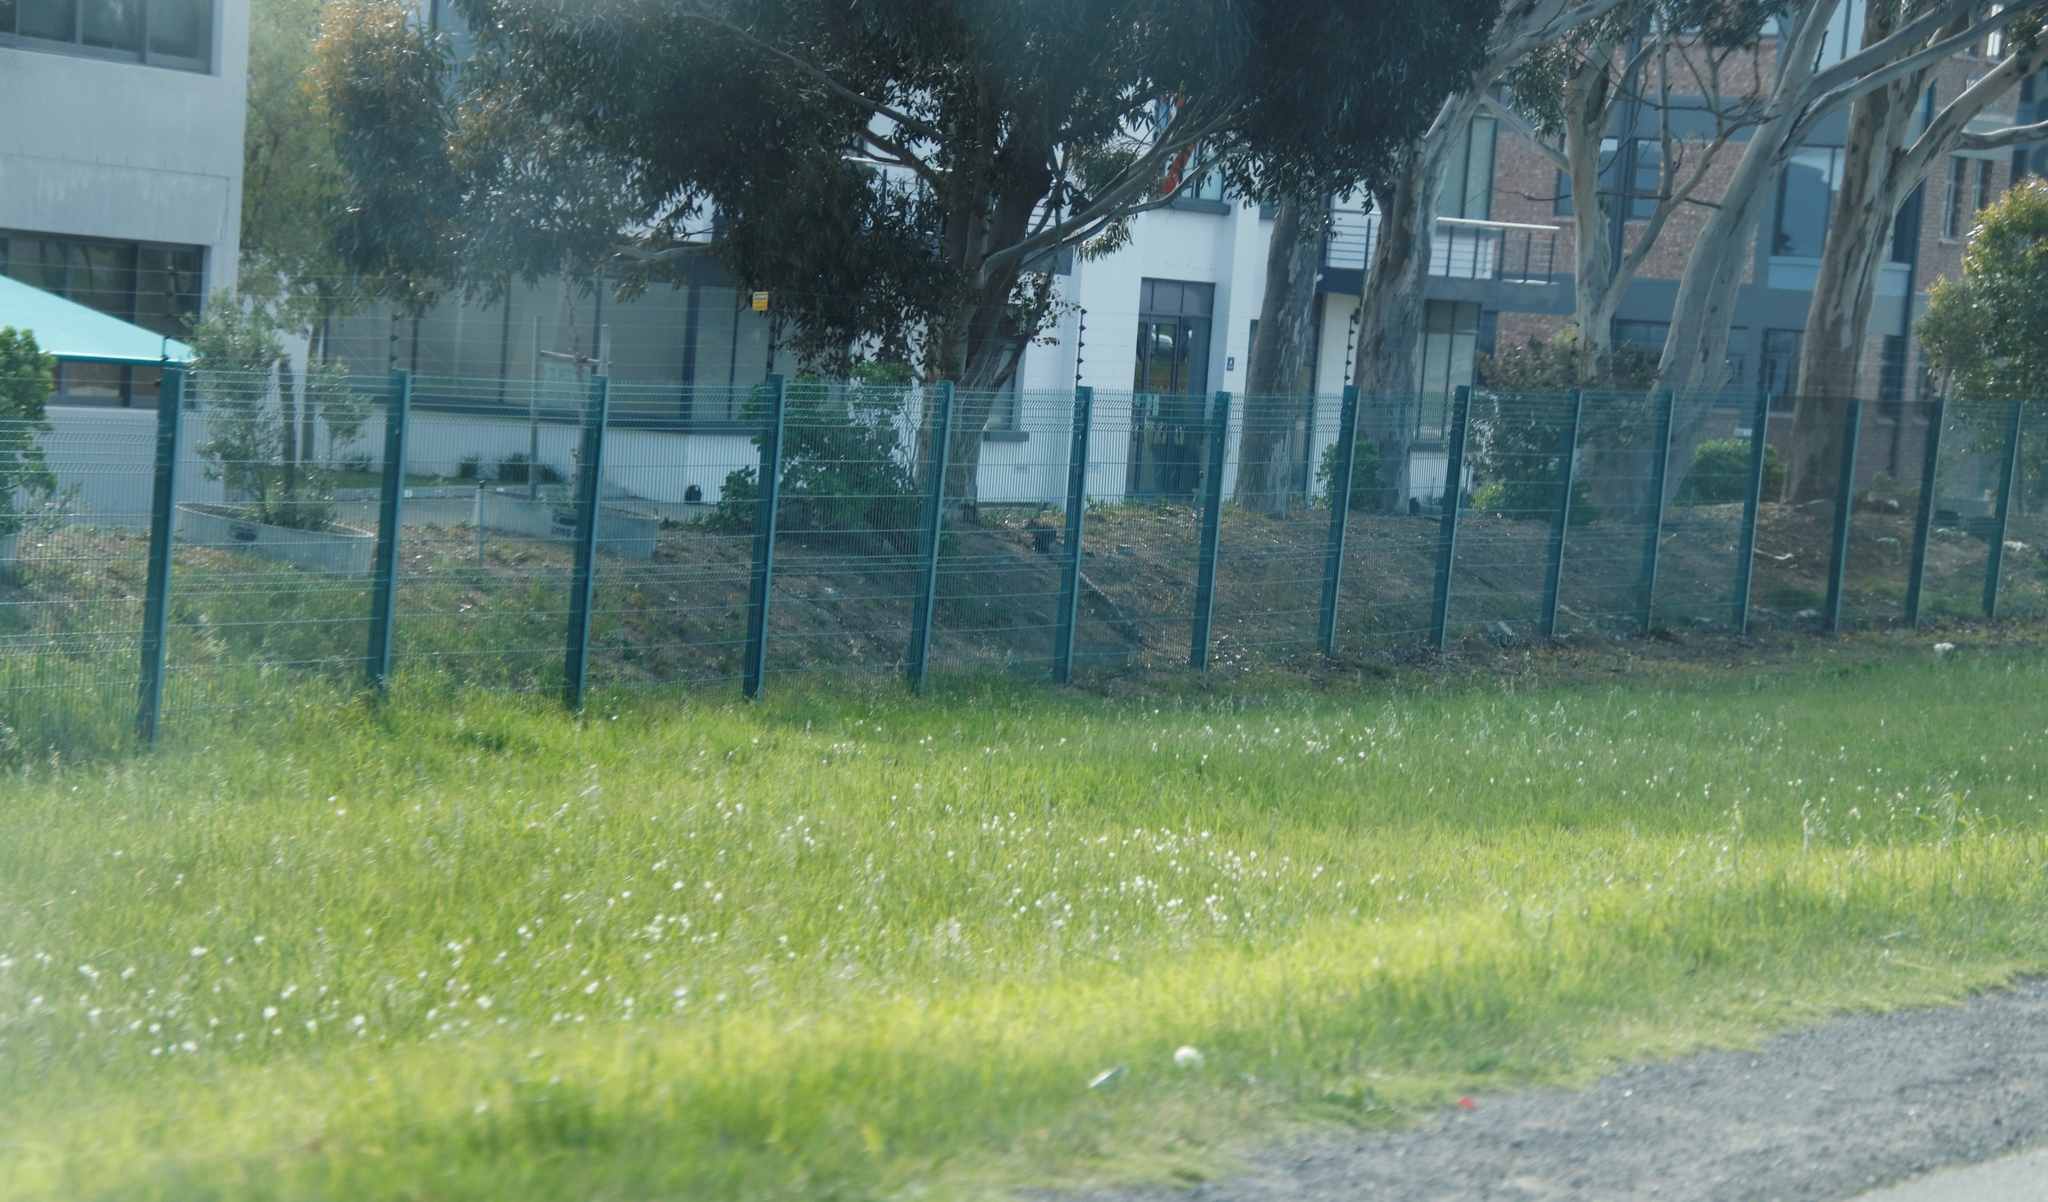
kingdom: Plantae
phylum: Tracheophyta
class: Liliopsida
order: Asparagales
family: Iridaceae
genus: Sparaxis
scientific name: Sparaxis bulbifera
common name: Harlequin-flower
